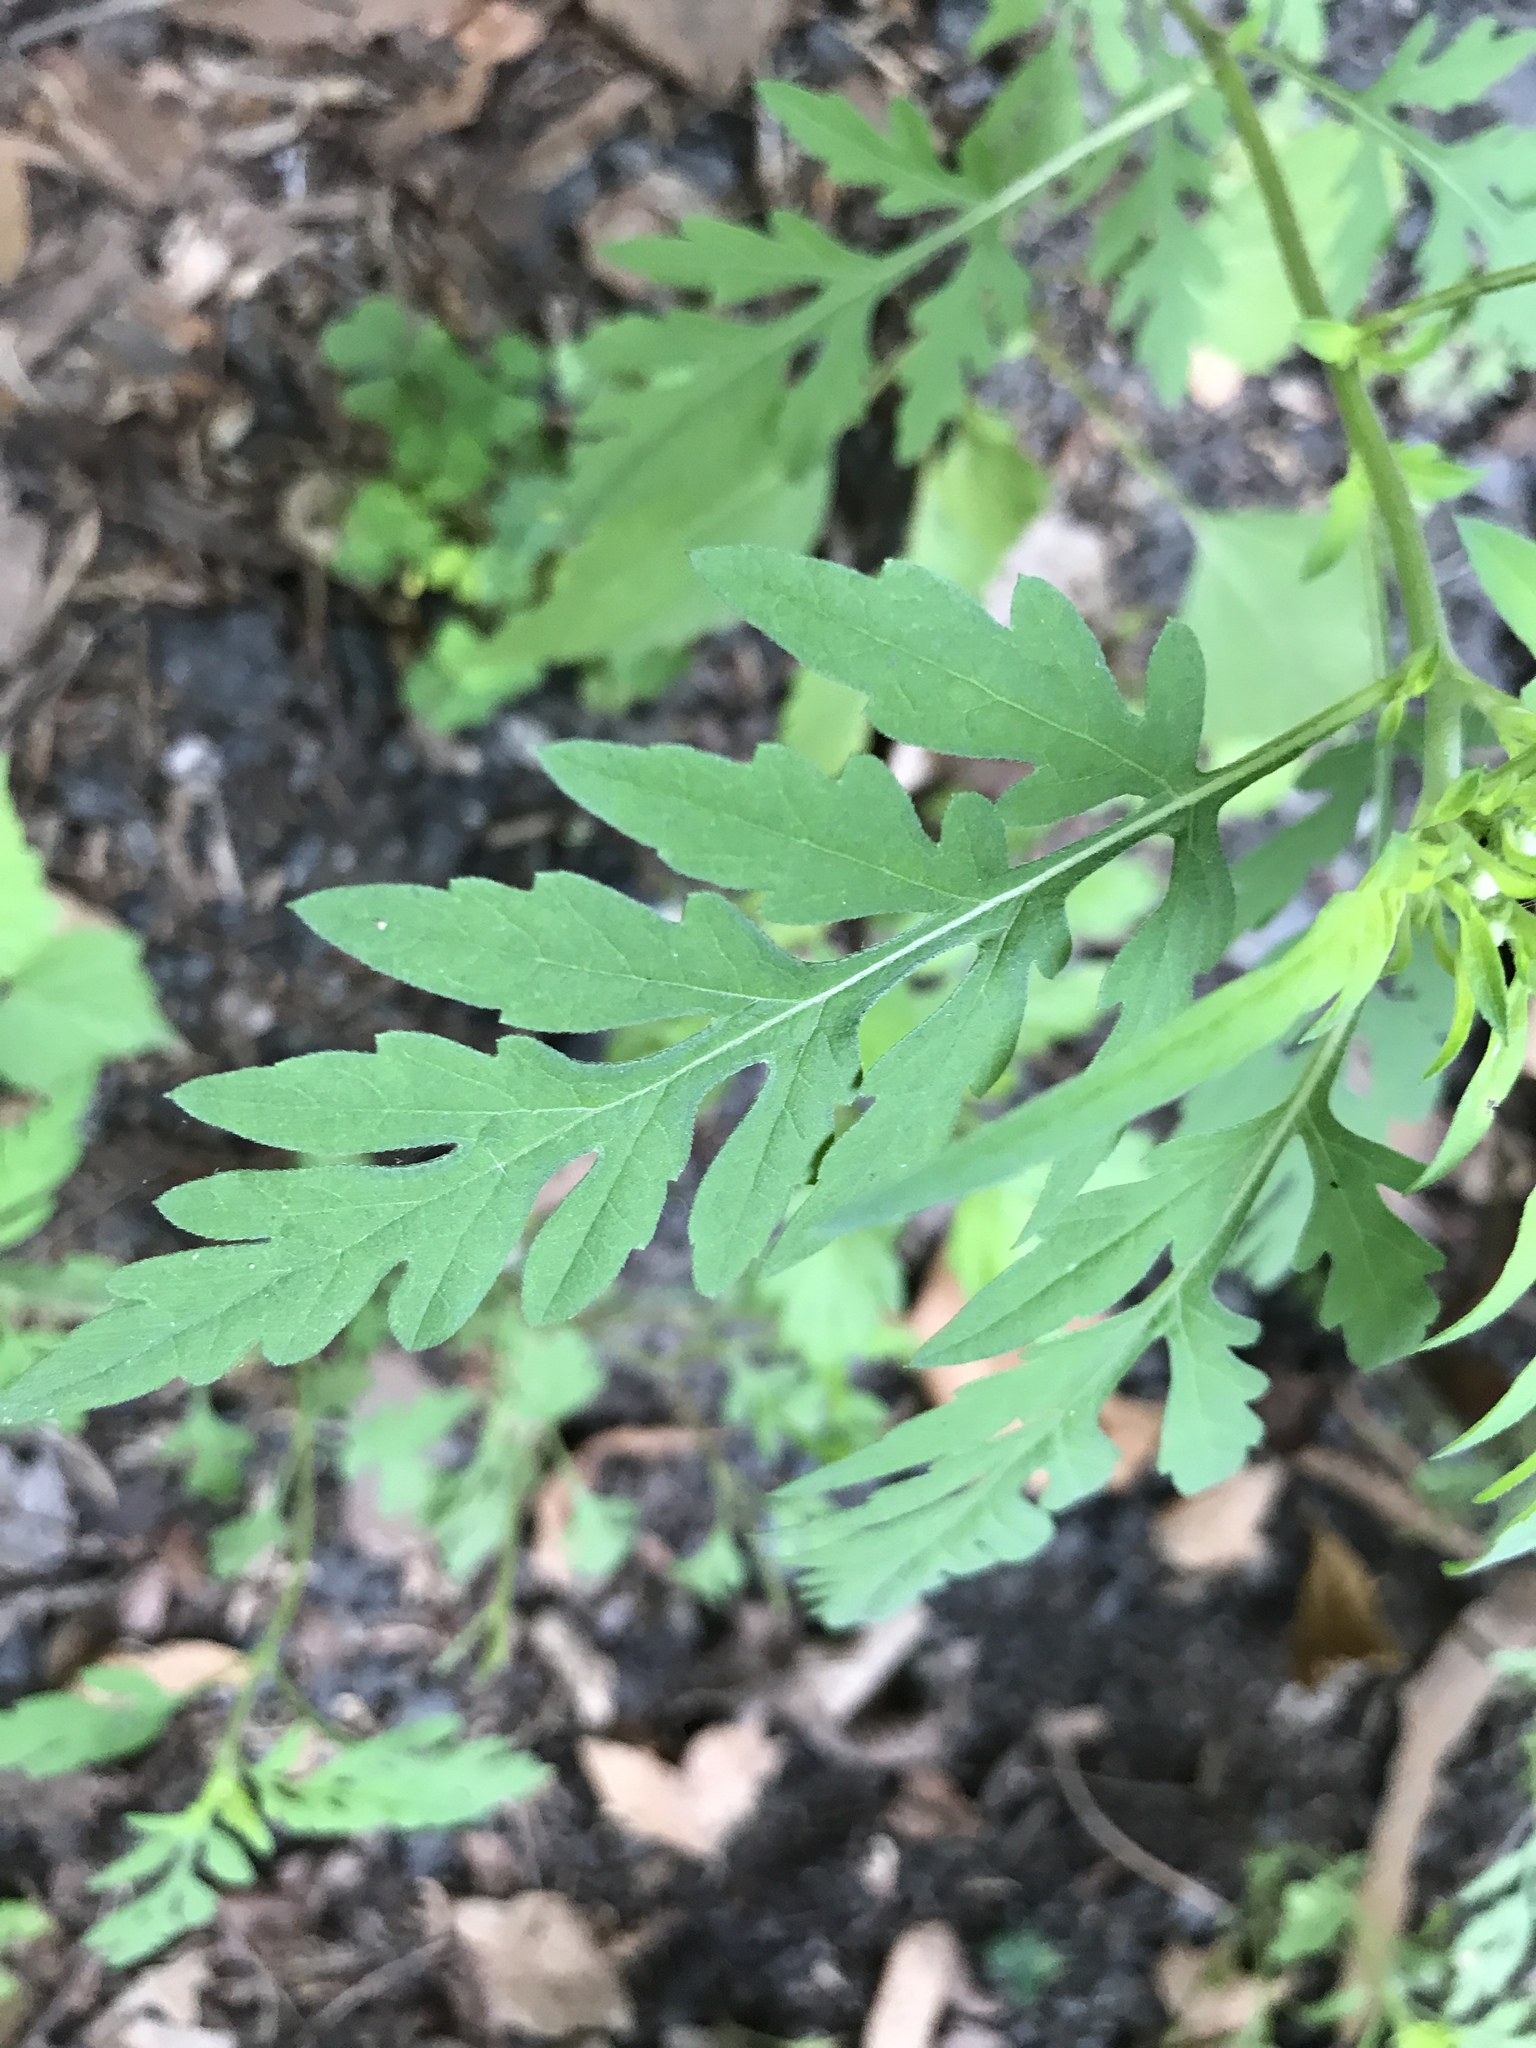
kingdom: Plantae
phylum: Tracheophyta
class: Magnoliopsida
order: Asterales
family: Asteraceae
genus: Ambrosia
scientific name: Ambrosia artemisiifolia
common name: Annual ragweed
